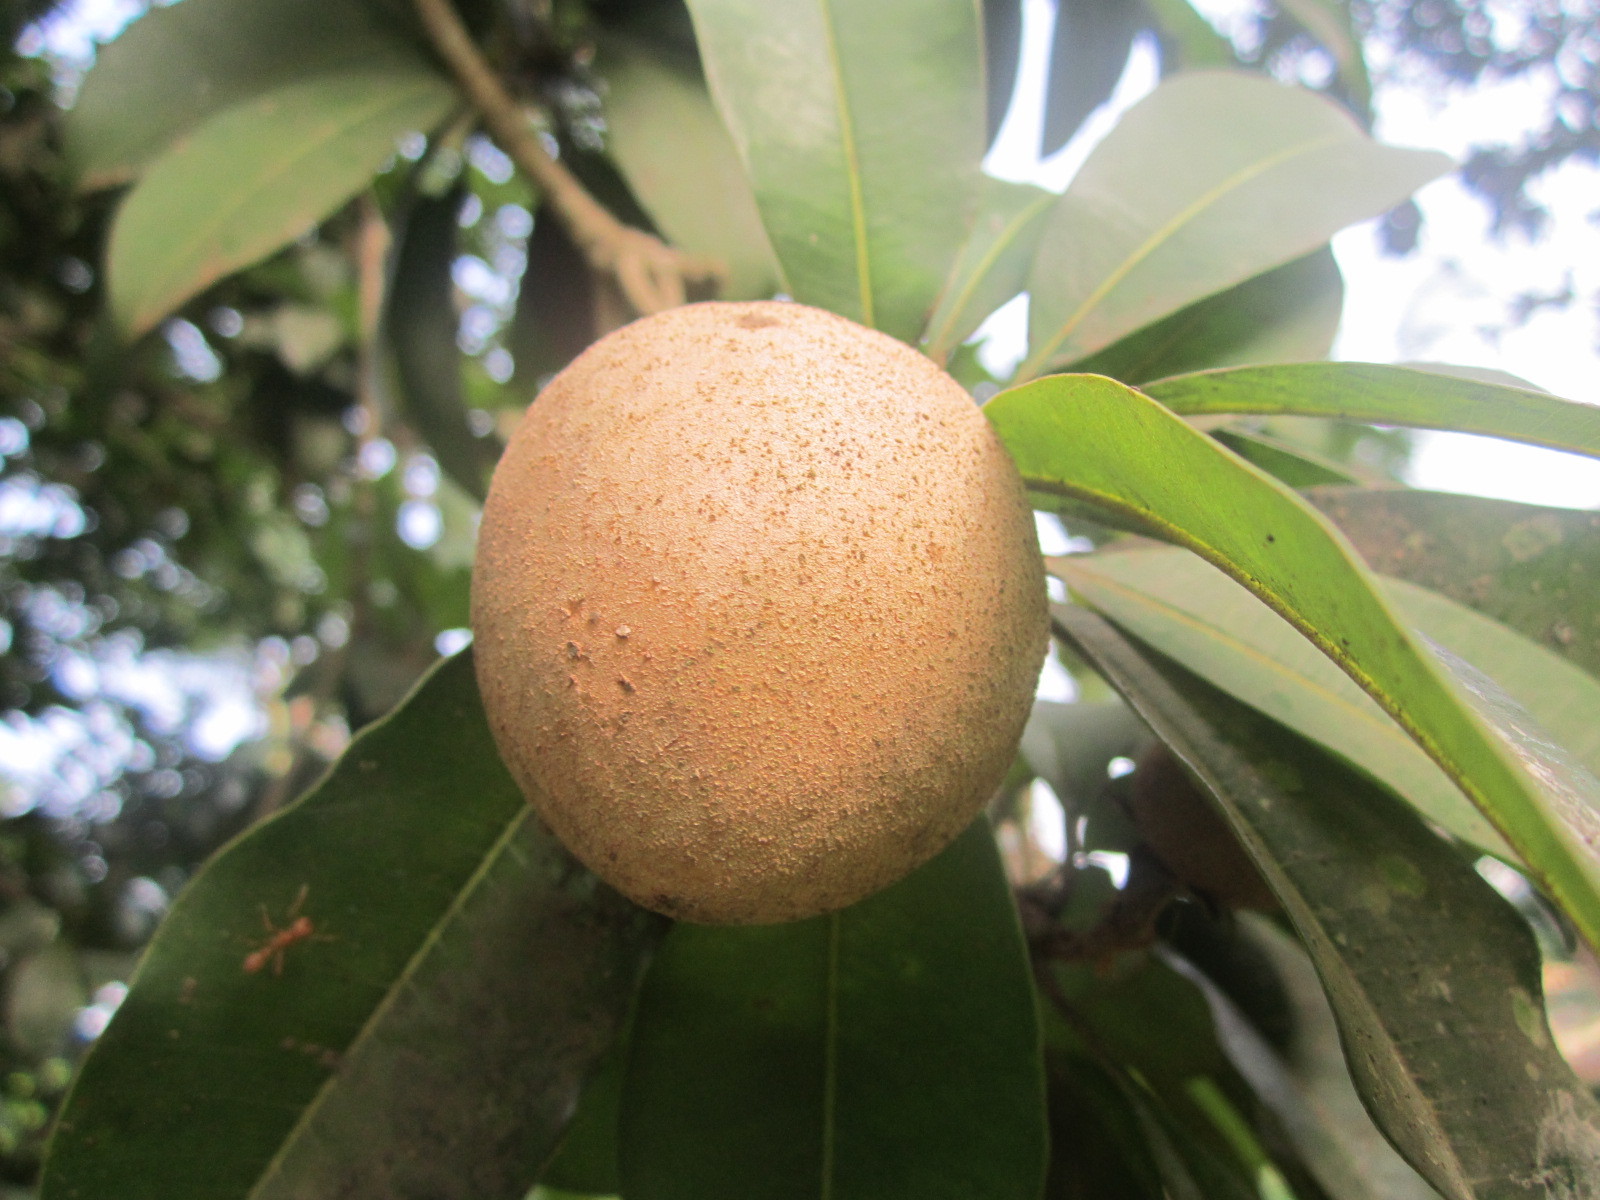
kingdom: Plantae
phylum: Tracheophyta
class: Magnoliopsida
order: Ericales
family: Sapotaceae
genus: Manilkara
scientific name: Manilkara zapota
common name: Sapodilla
